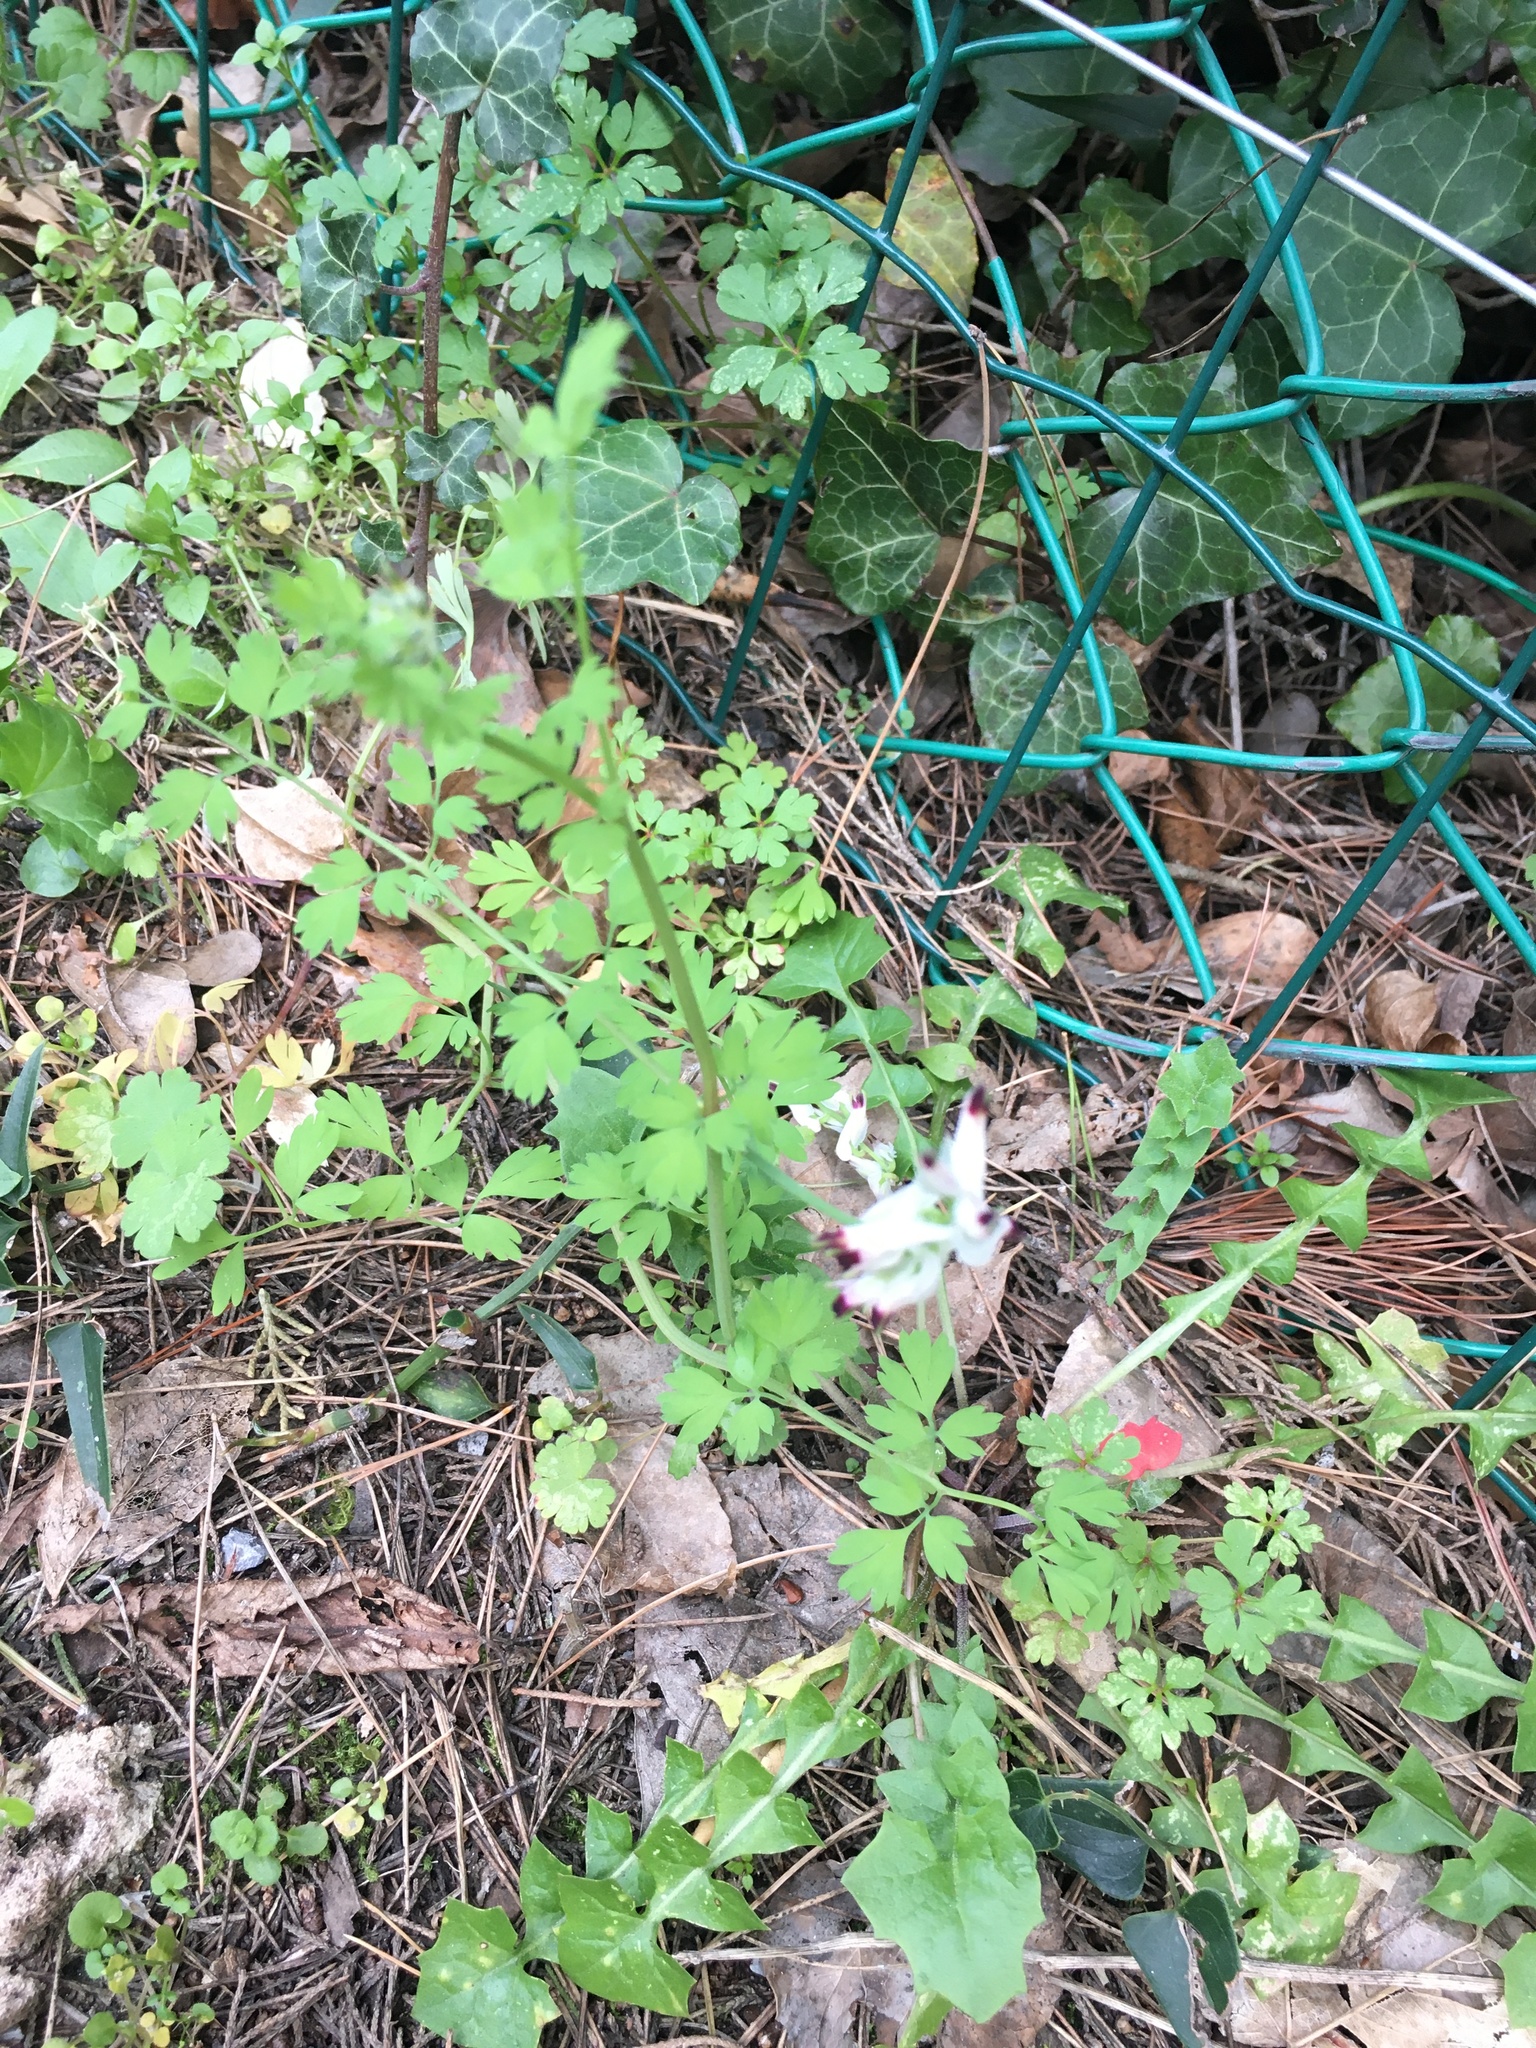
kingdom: Plantae
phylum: Tracheophyta
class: Magnoliopsida
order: Ranunculales
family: Papaveraceae
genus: Fumaria
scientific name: Fumaria capreolata
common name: White ramping-fumitory
